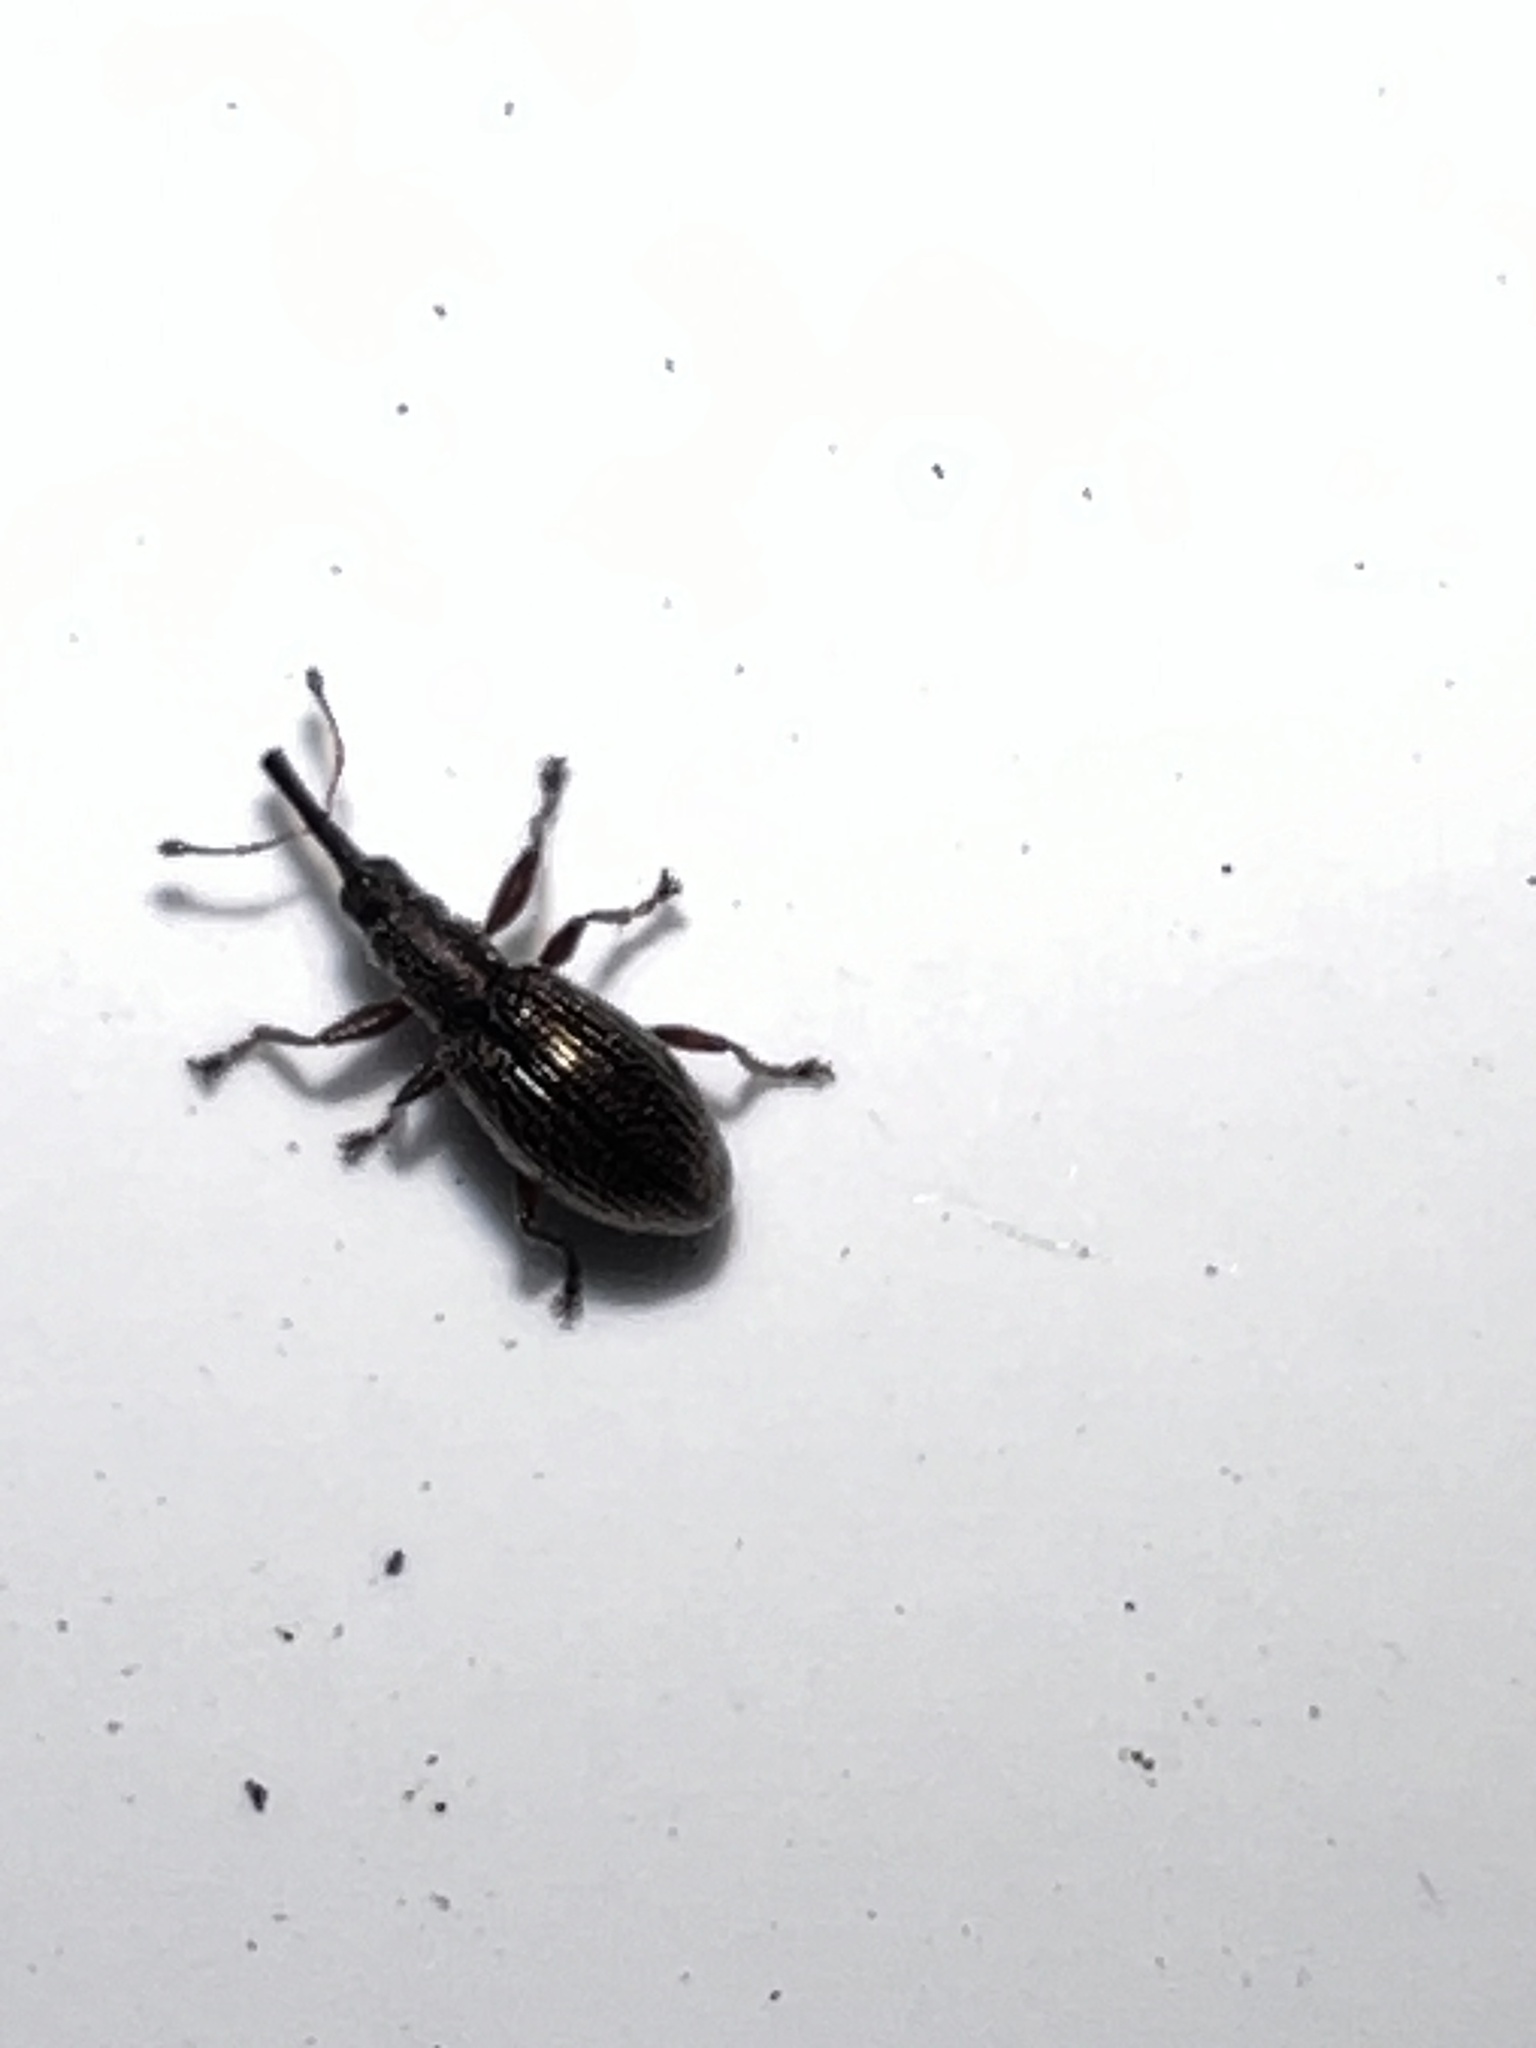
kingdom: Animalia
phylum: Arthropoda
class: Insecta
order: Coleoptera
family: Brentidae
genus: Neocyba
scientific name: Neocyba metrosideros
